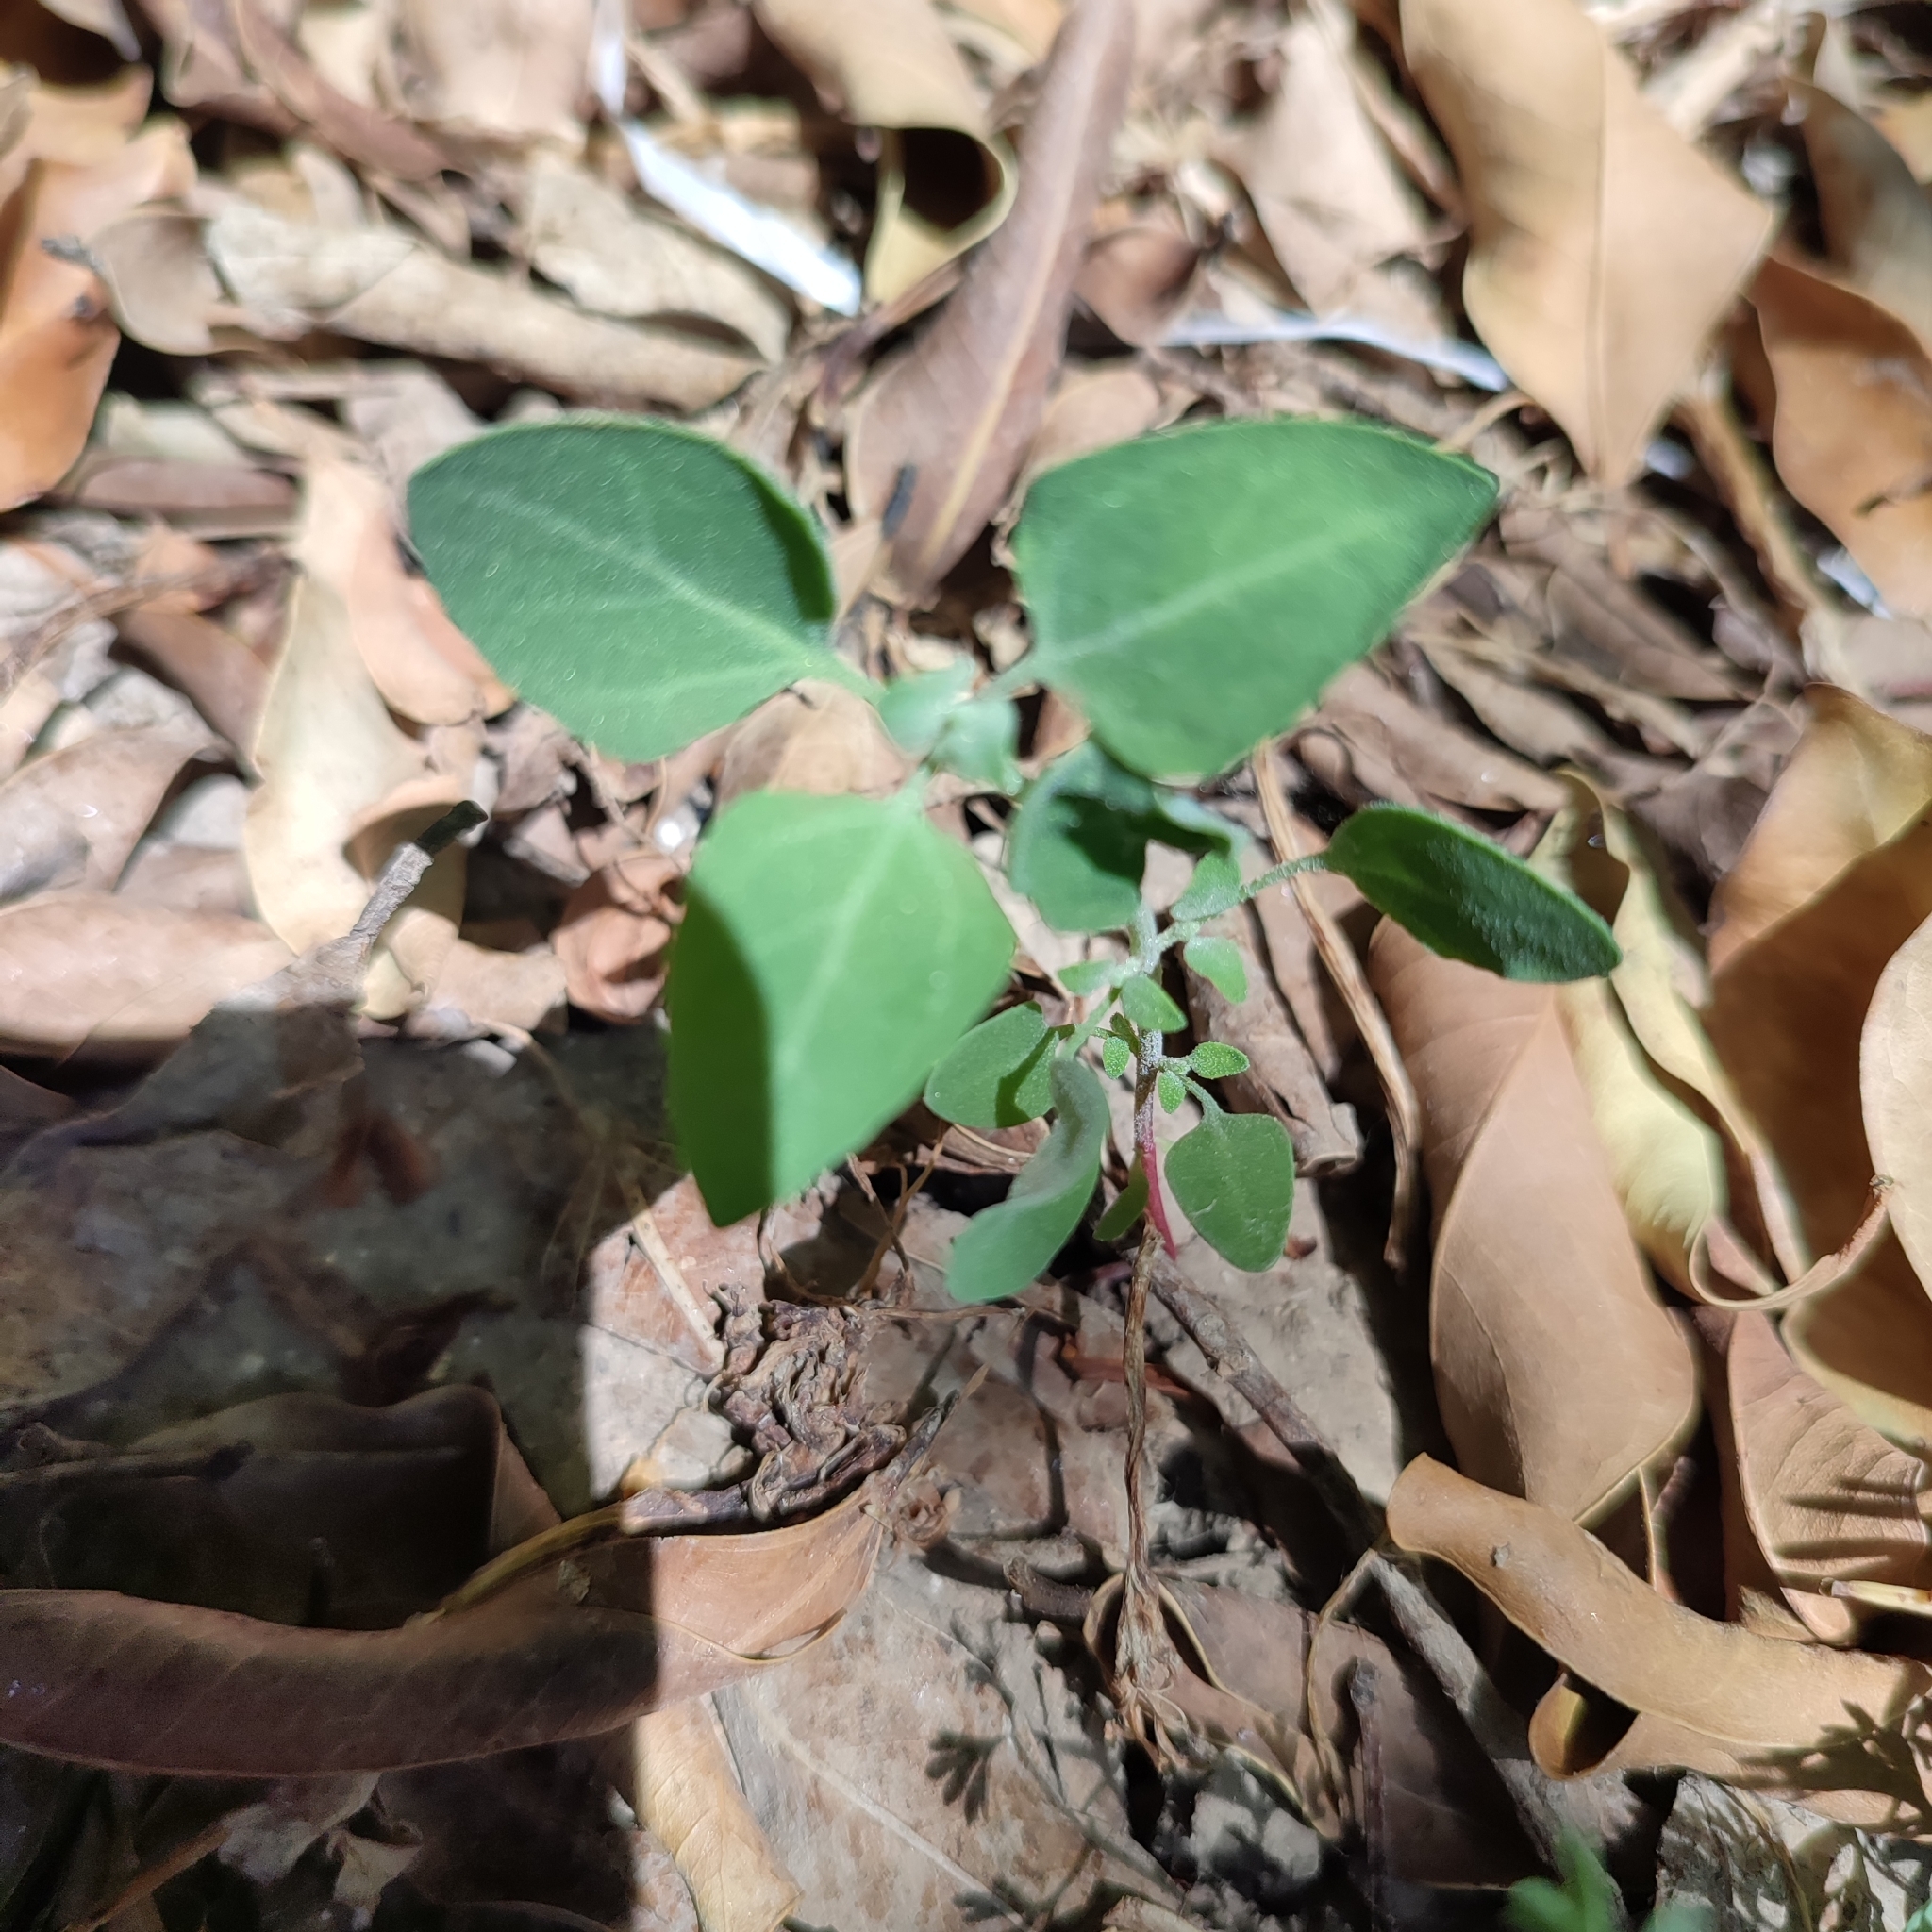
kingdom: Plantae
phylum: Tracheophyta
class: Magnoliopsida
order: Caryophyllales
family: Amaranthaceae
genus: Chenopodium
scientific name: Chenopodium vulvaria
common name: Stinking goosefoot
